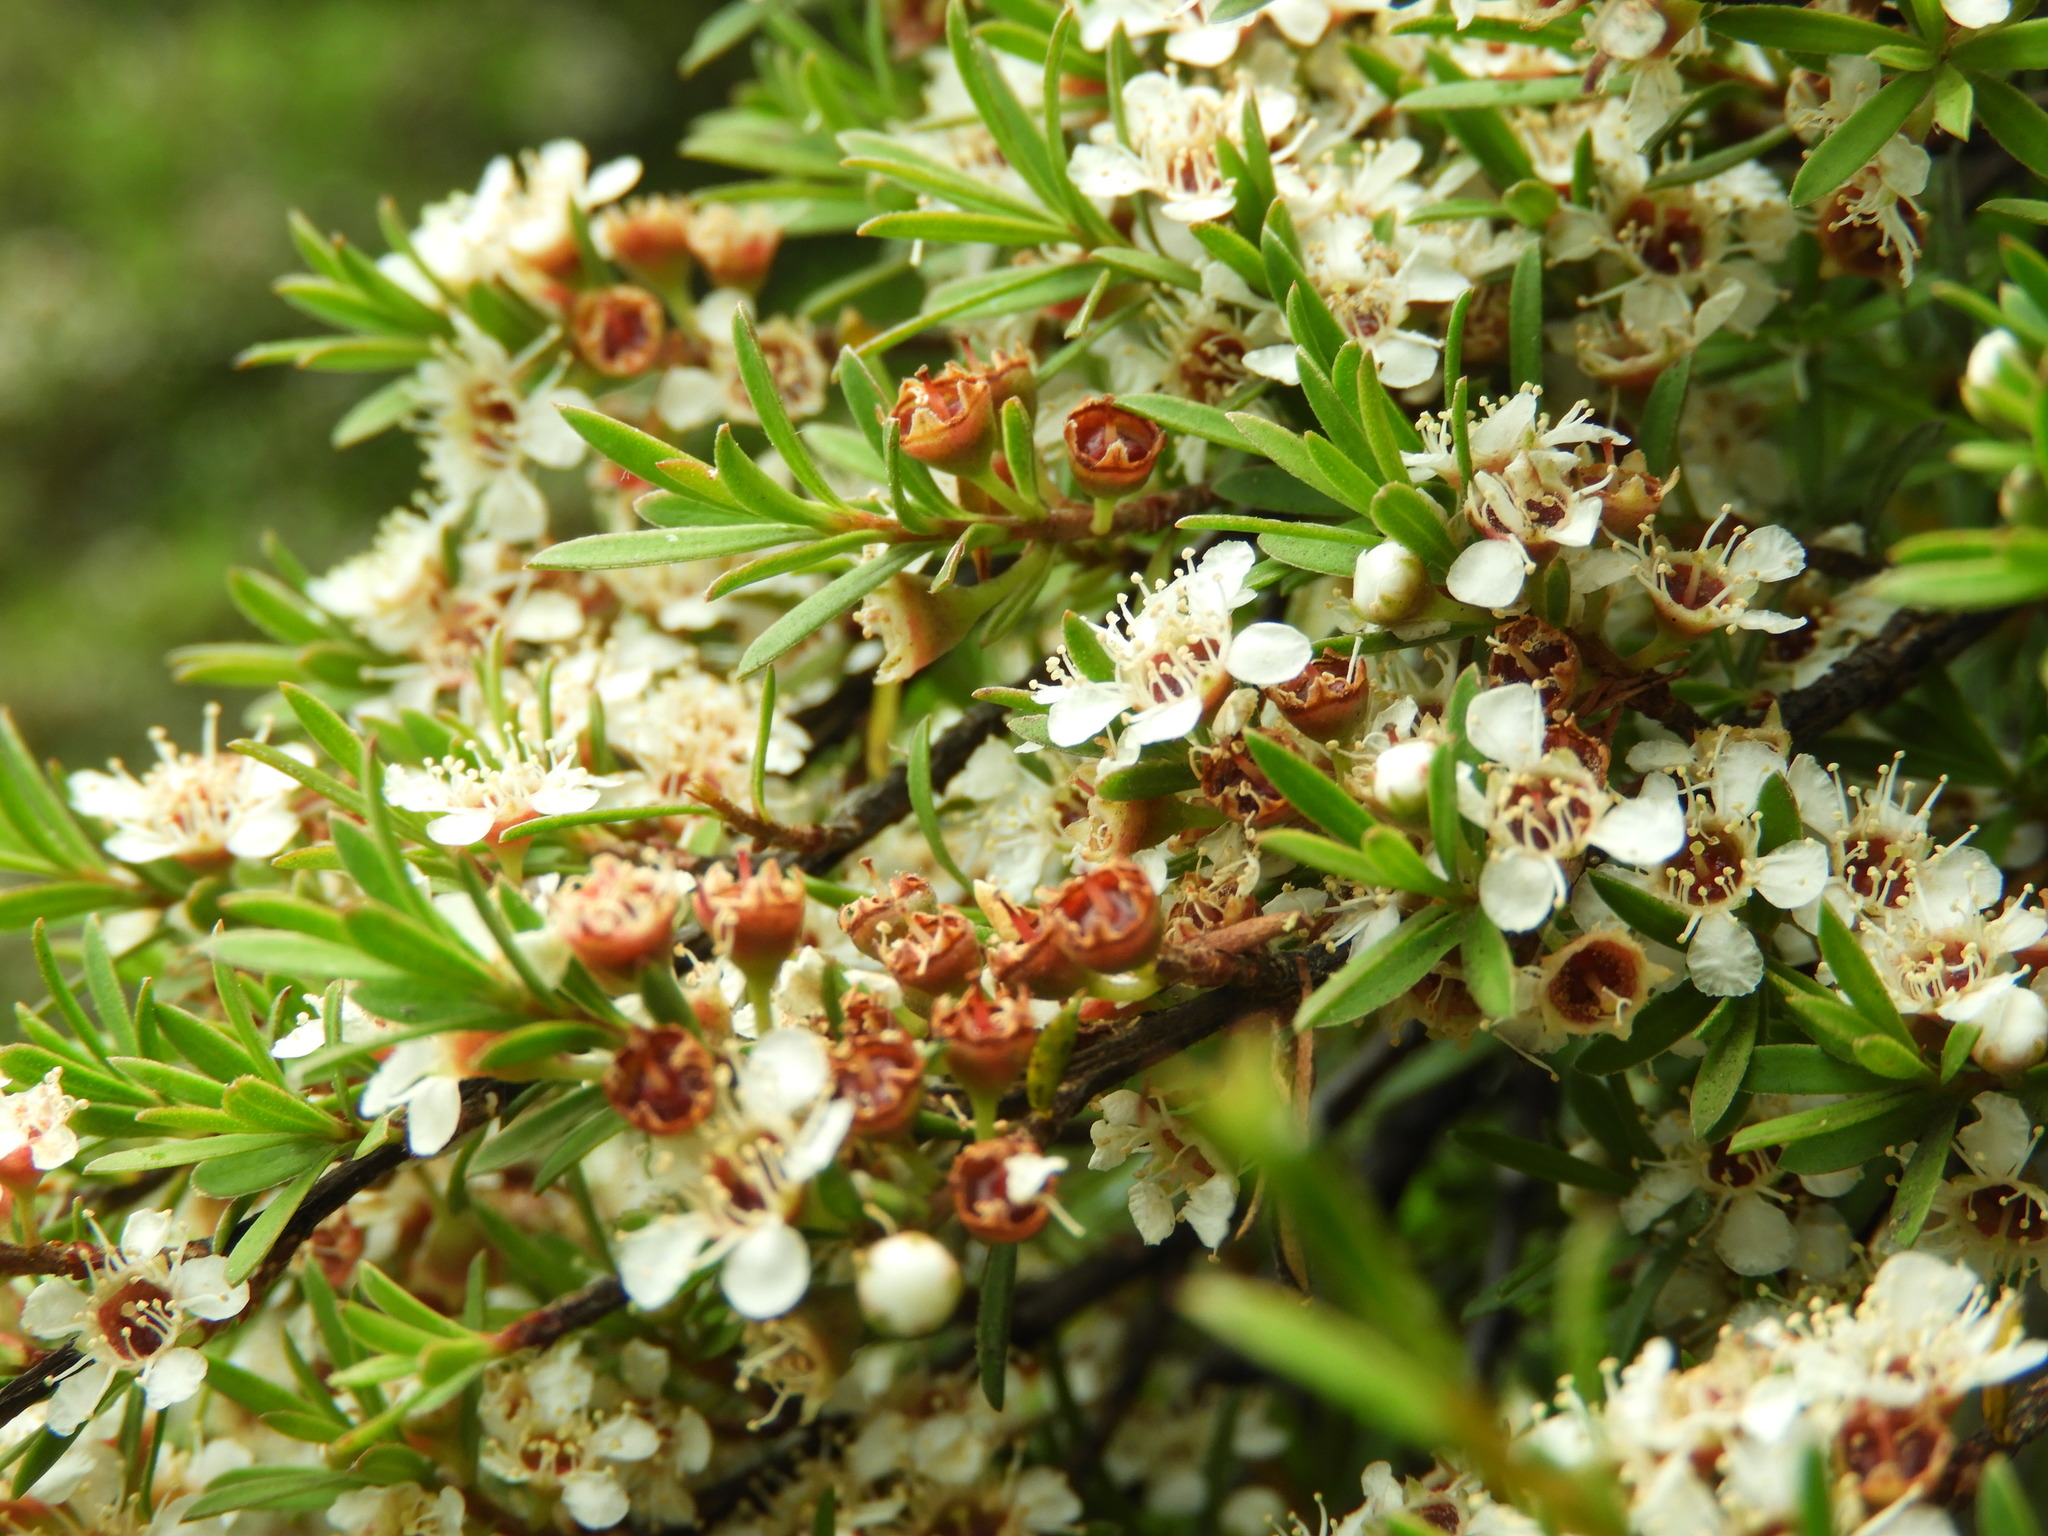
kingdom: Plantae
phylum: Tracheophyta
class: Magnoliopsida
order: Myrtales
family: Myrtaceae
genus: Kunzea
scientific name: Kunzea robusta
